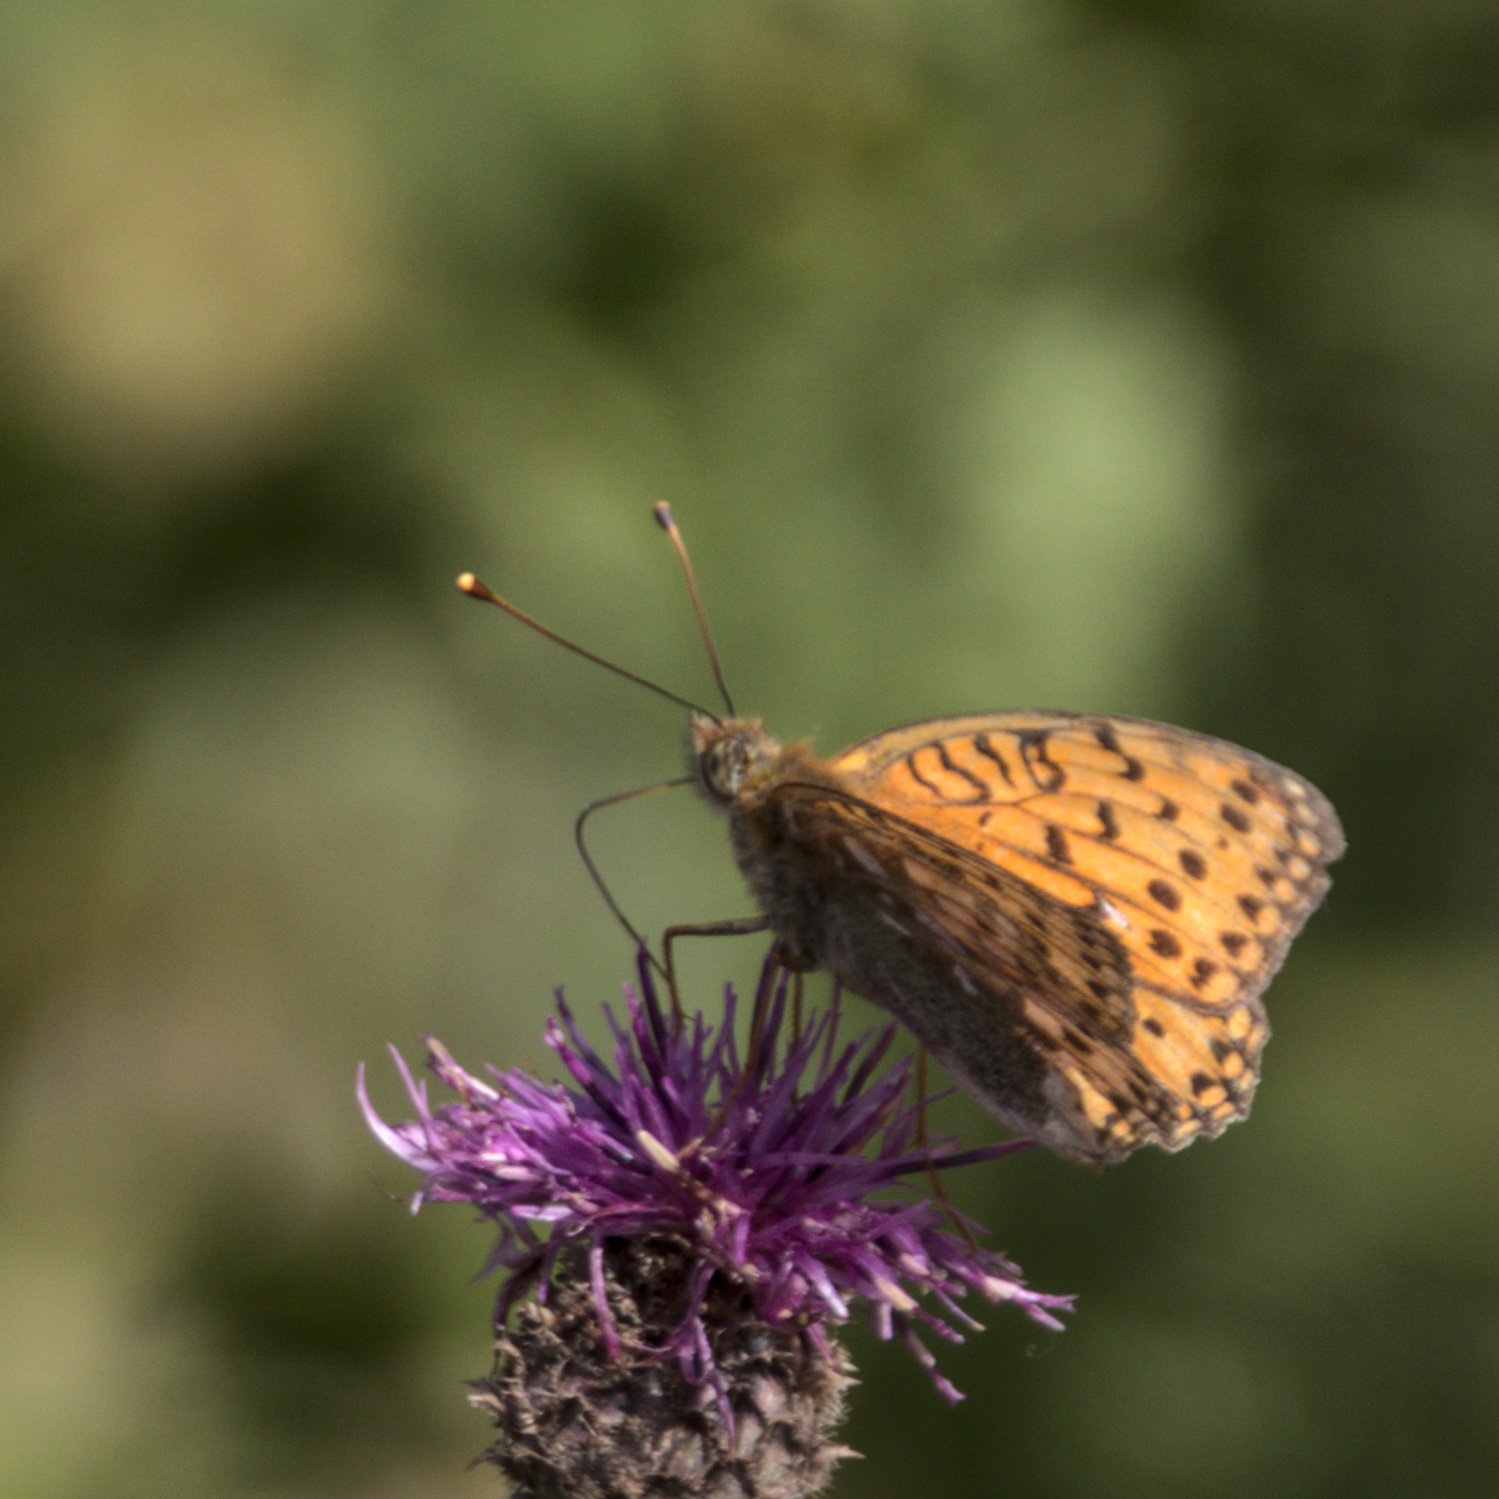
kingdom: Animalia
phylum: Arthropoda
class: Insecta
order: Lepidoptera
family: Nymphalidae
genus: Speyeria
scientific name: Speyeria aglaja
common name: Dark green fritillary
